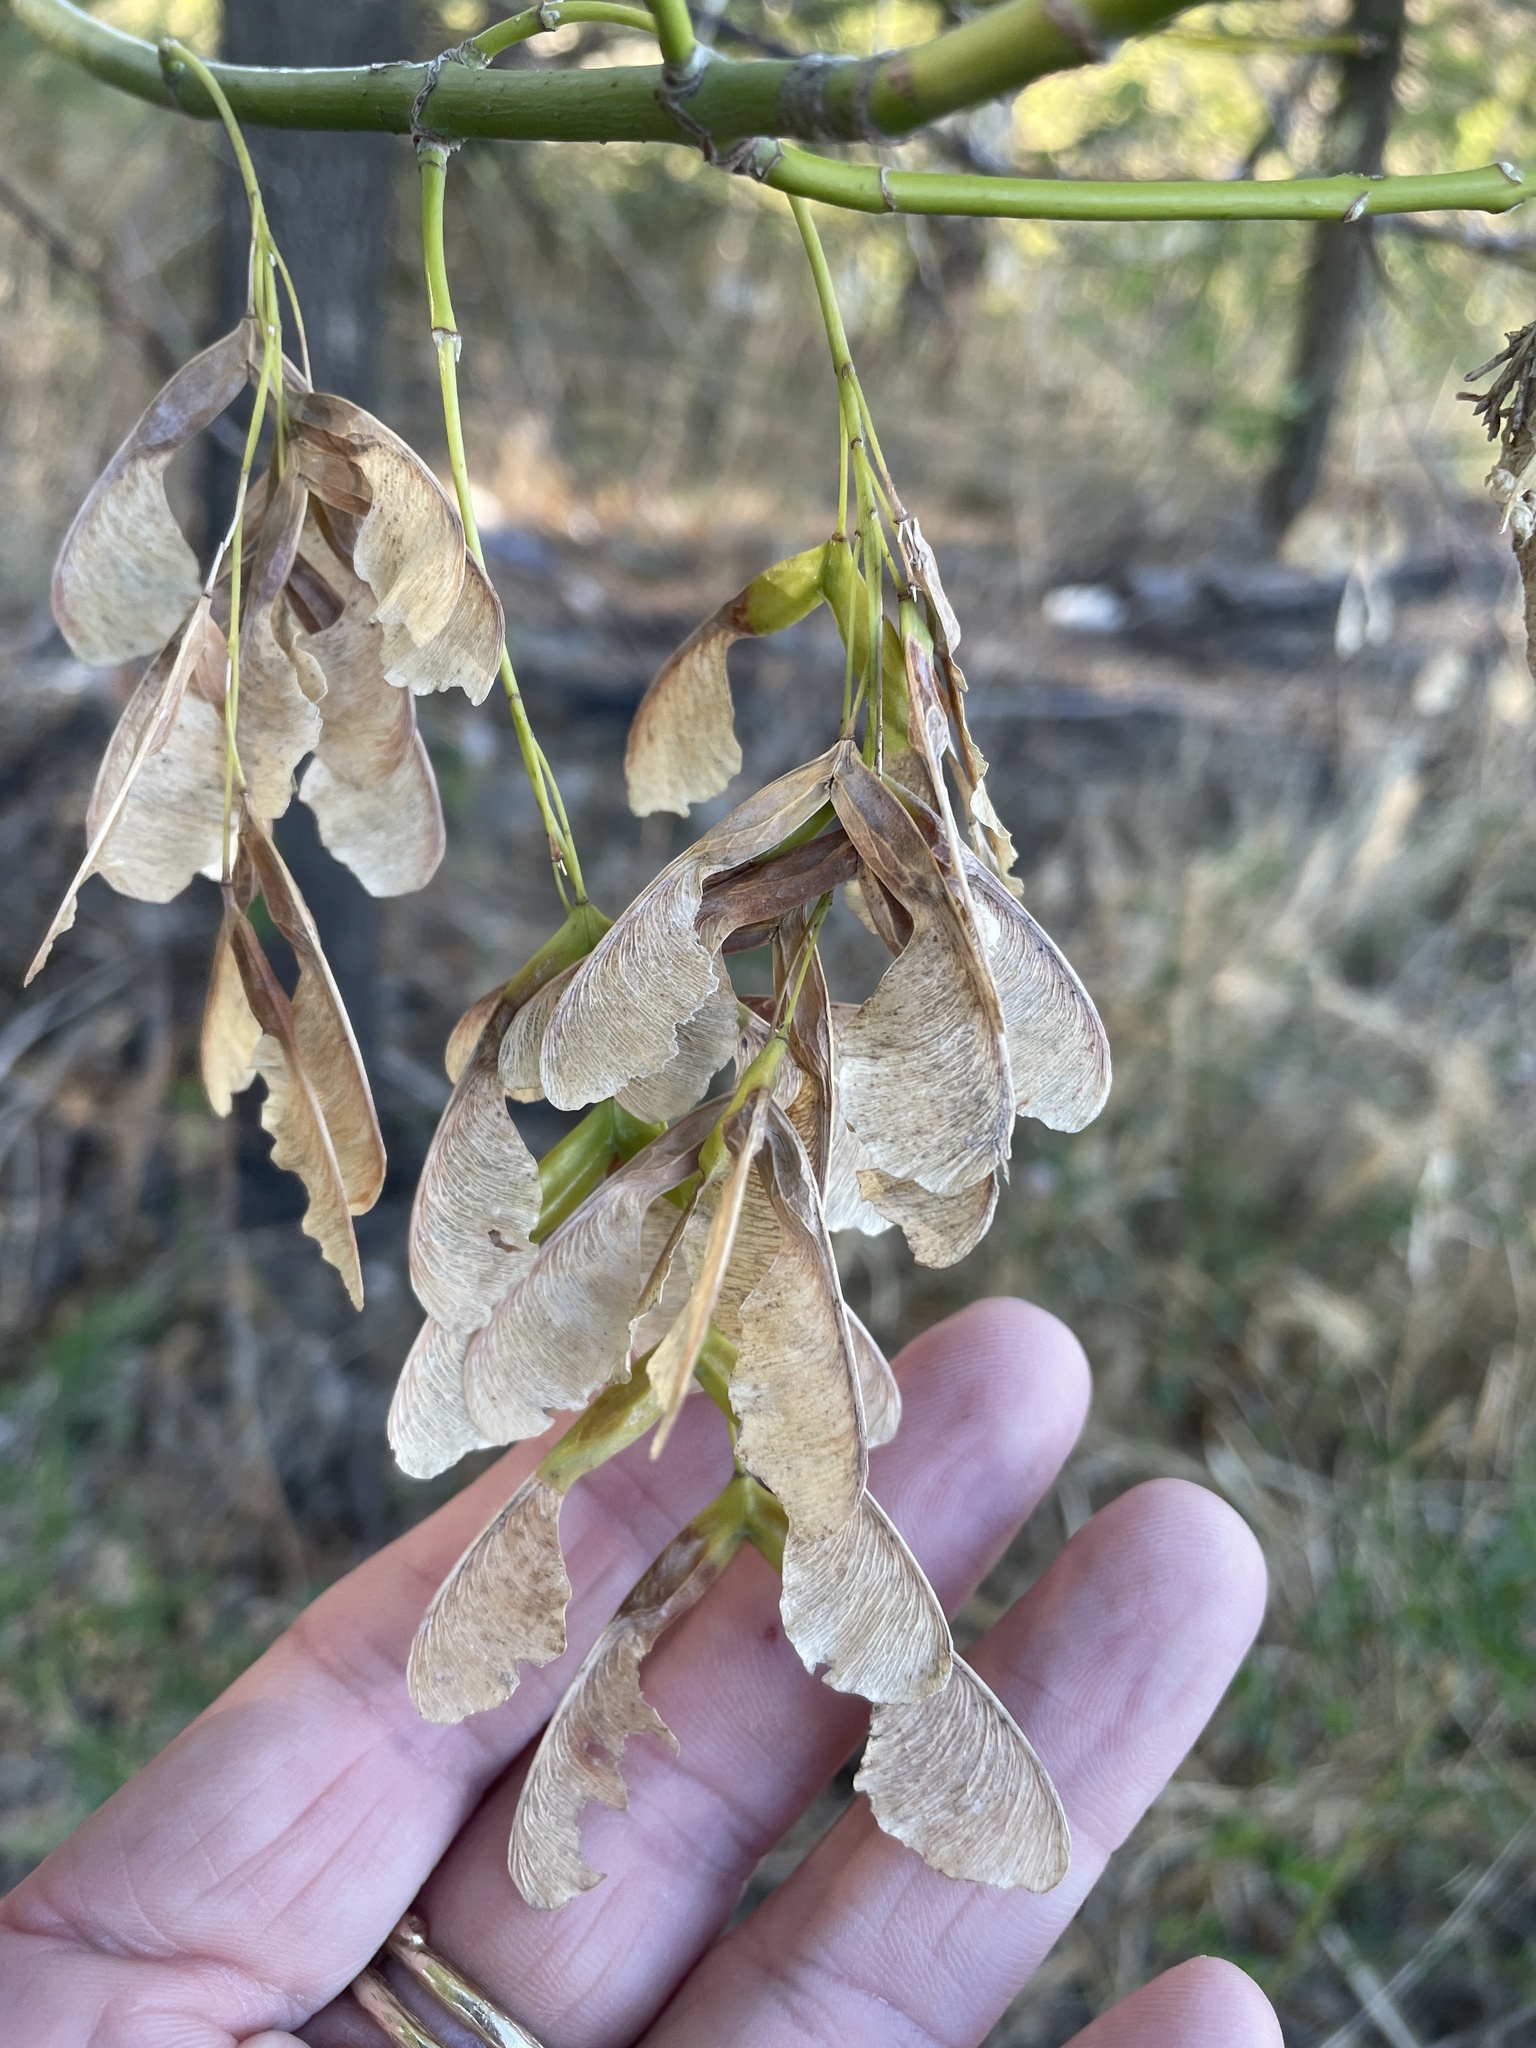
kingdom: Plantae
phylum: Tracheophyta
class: Magnoliopsida
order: Sapindales
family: Sapindaceae
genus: Acer
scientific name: Acer negundo
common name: Ashleaf maple
